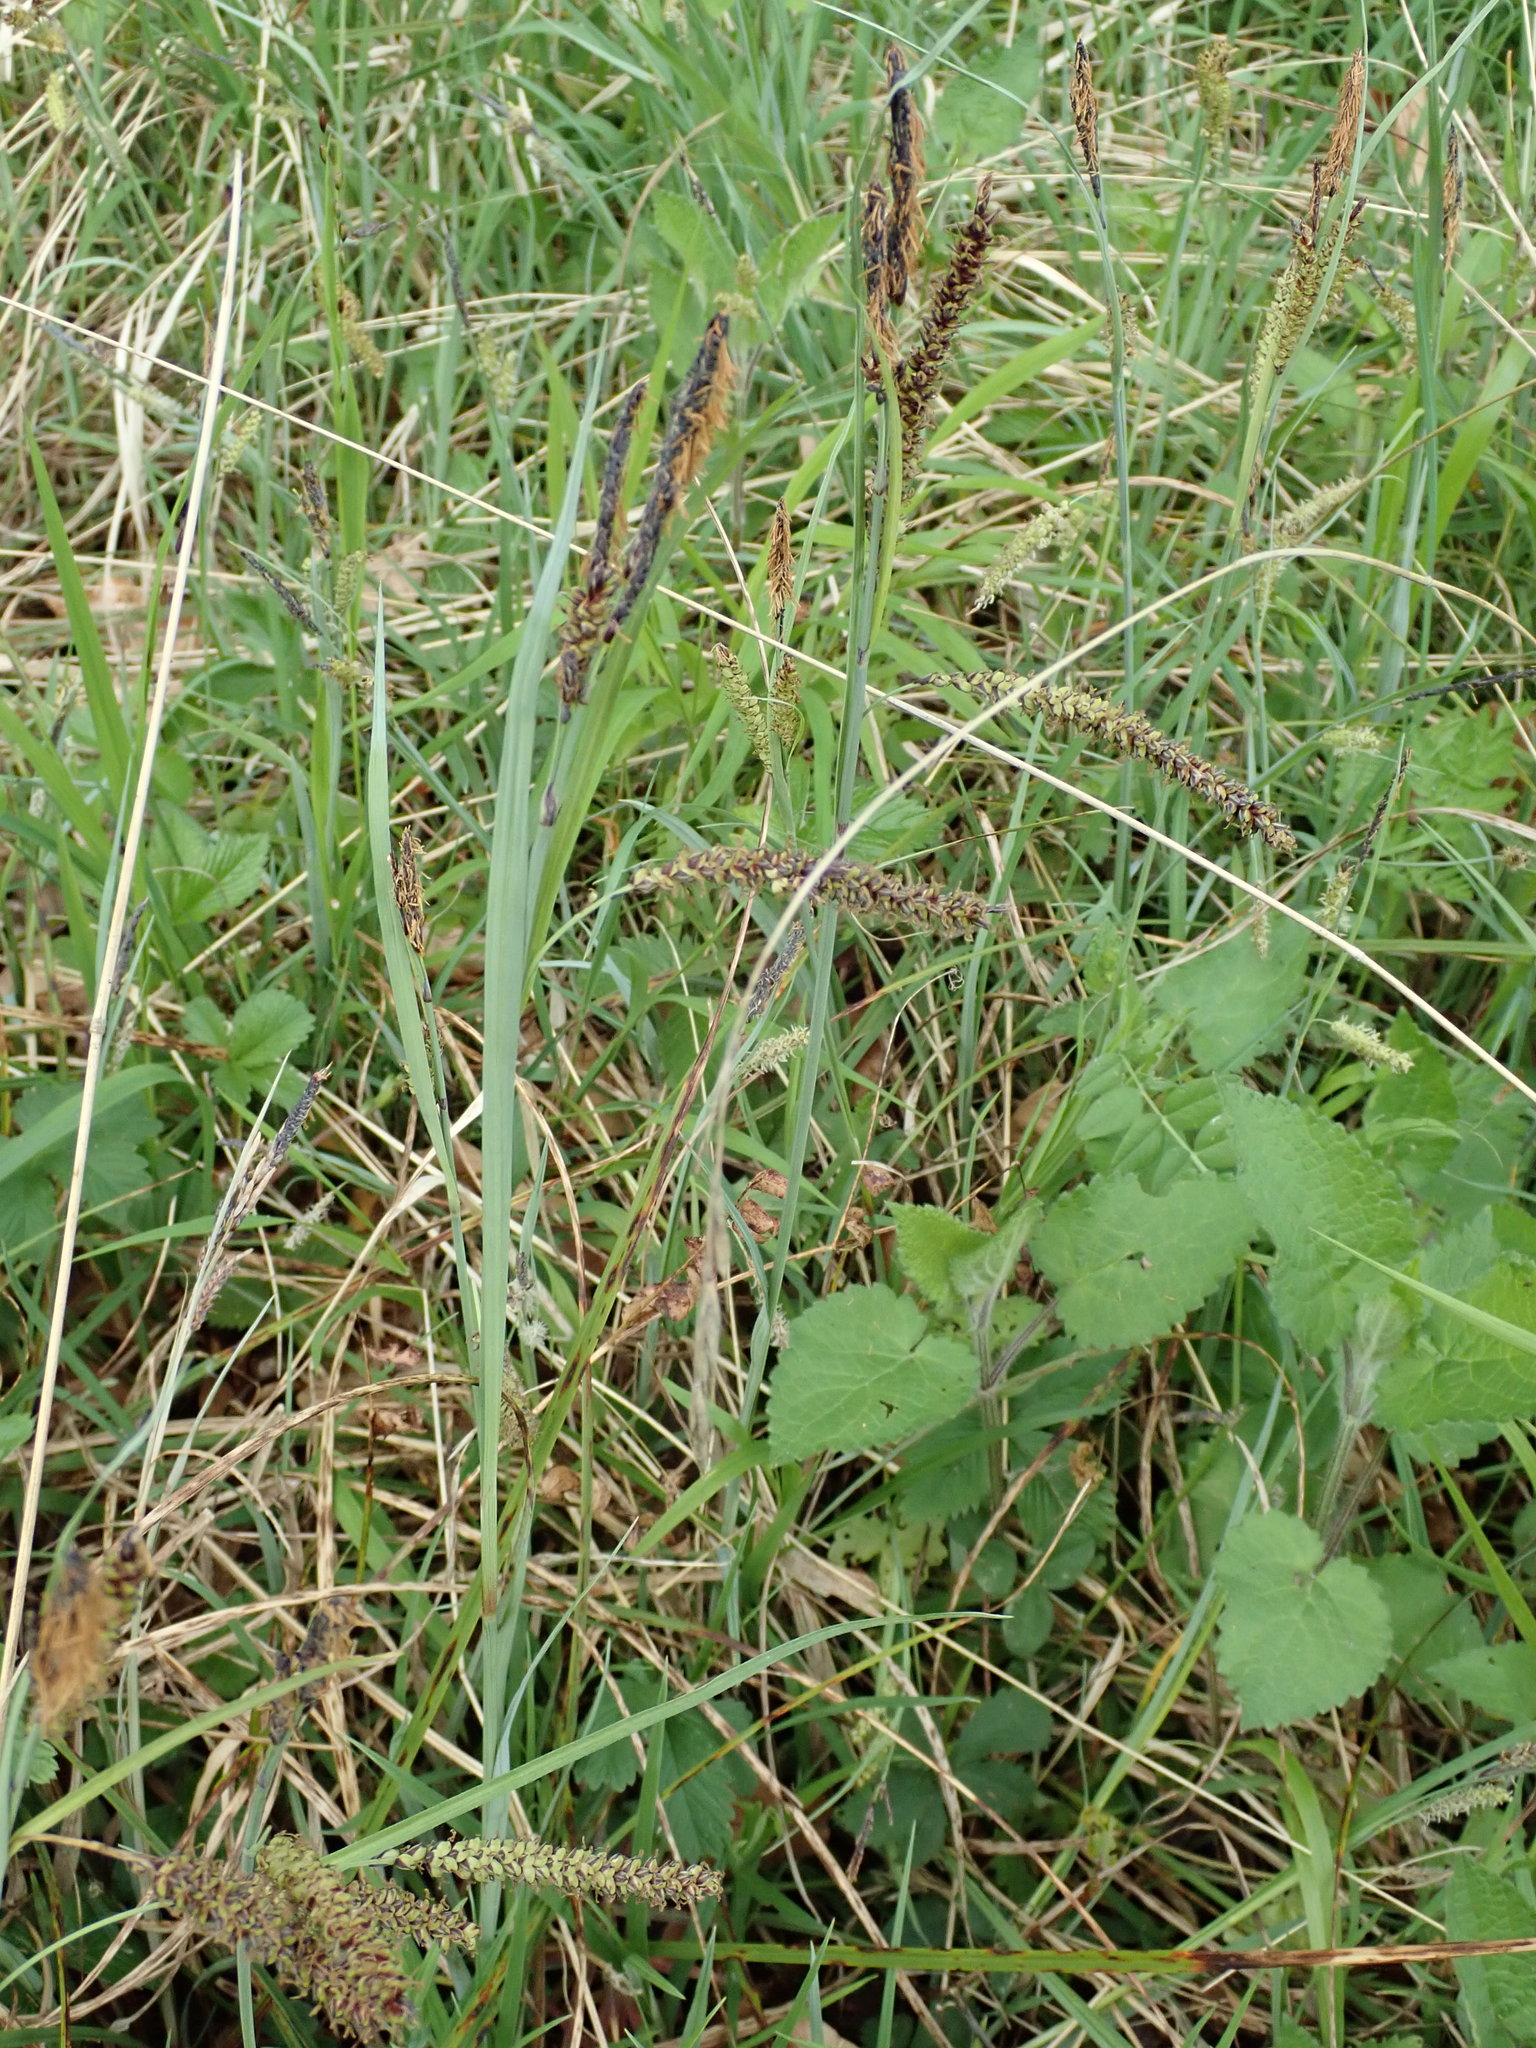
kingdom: Plantae
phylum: Tracheophyta
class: Liliopsida
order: Poales
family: Cyperaceae
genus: Carex
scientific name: Carex flacca
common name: Glaucous sedge
